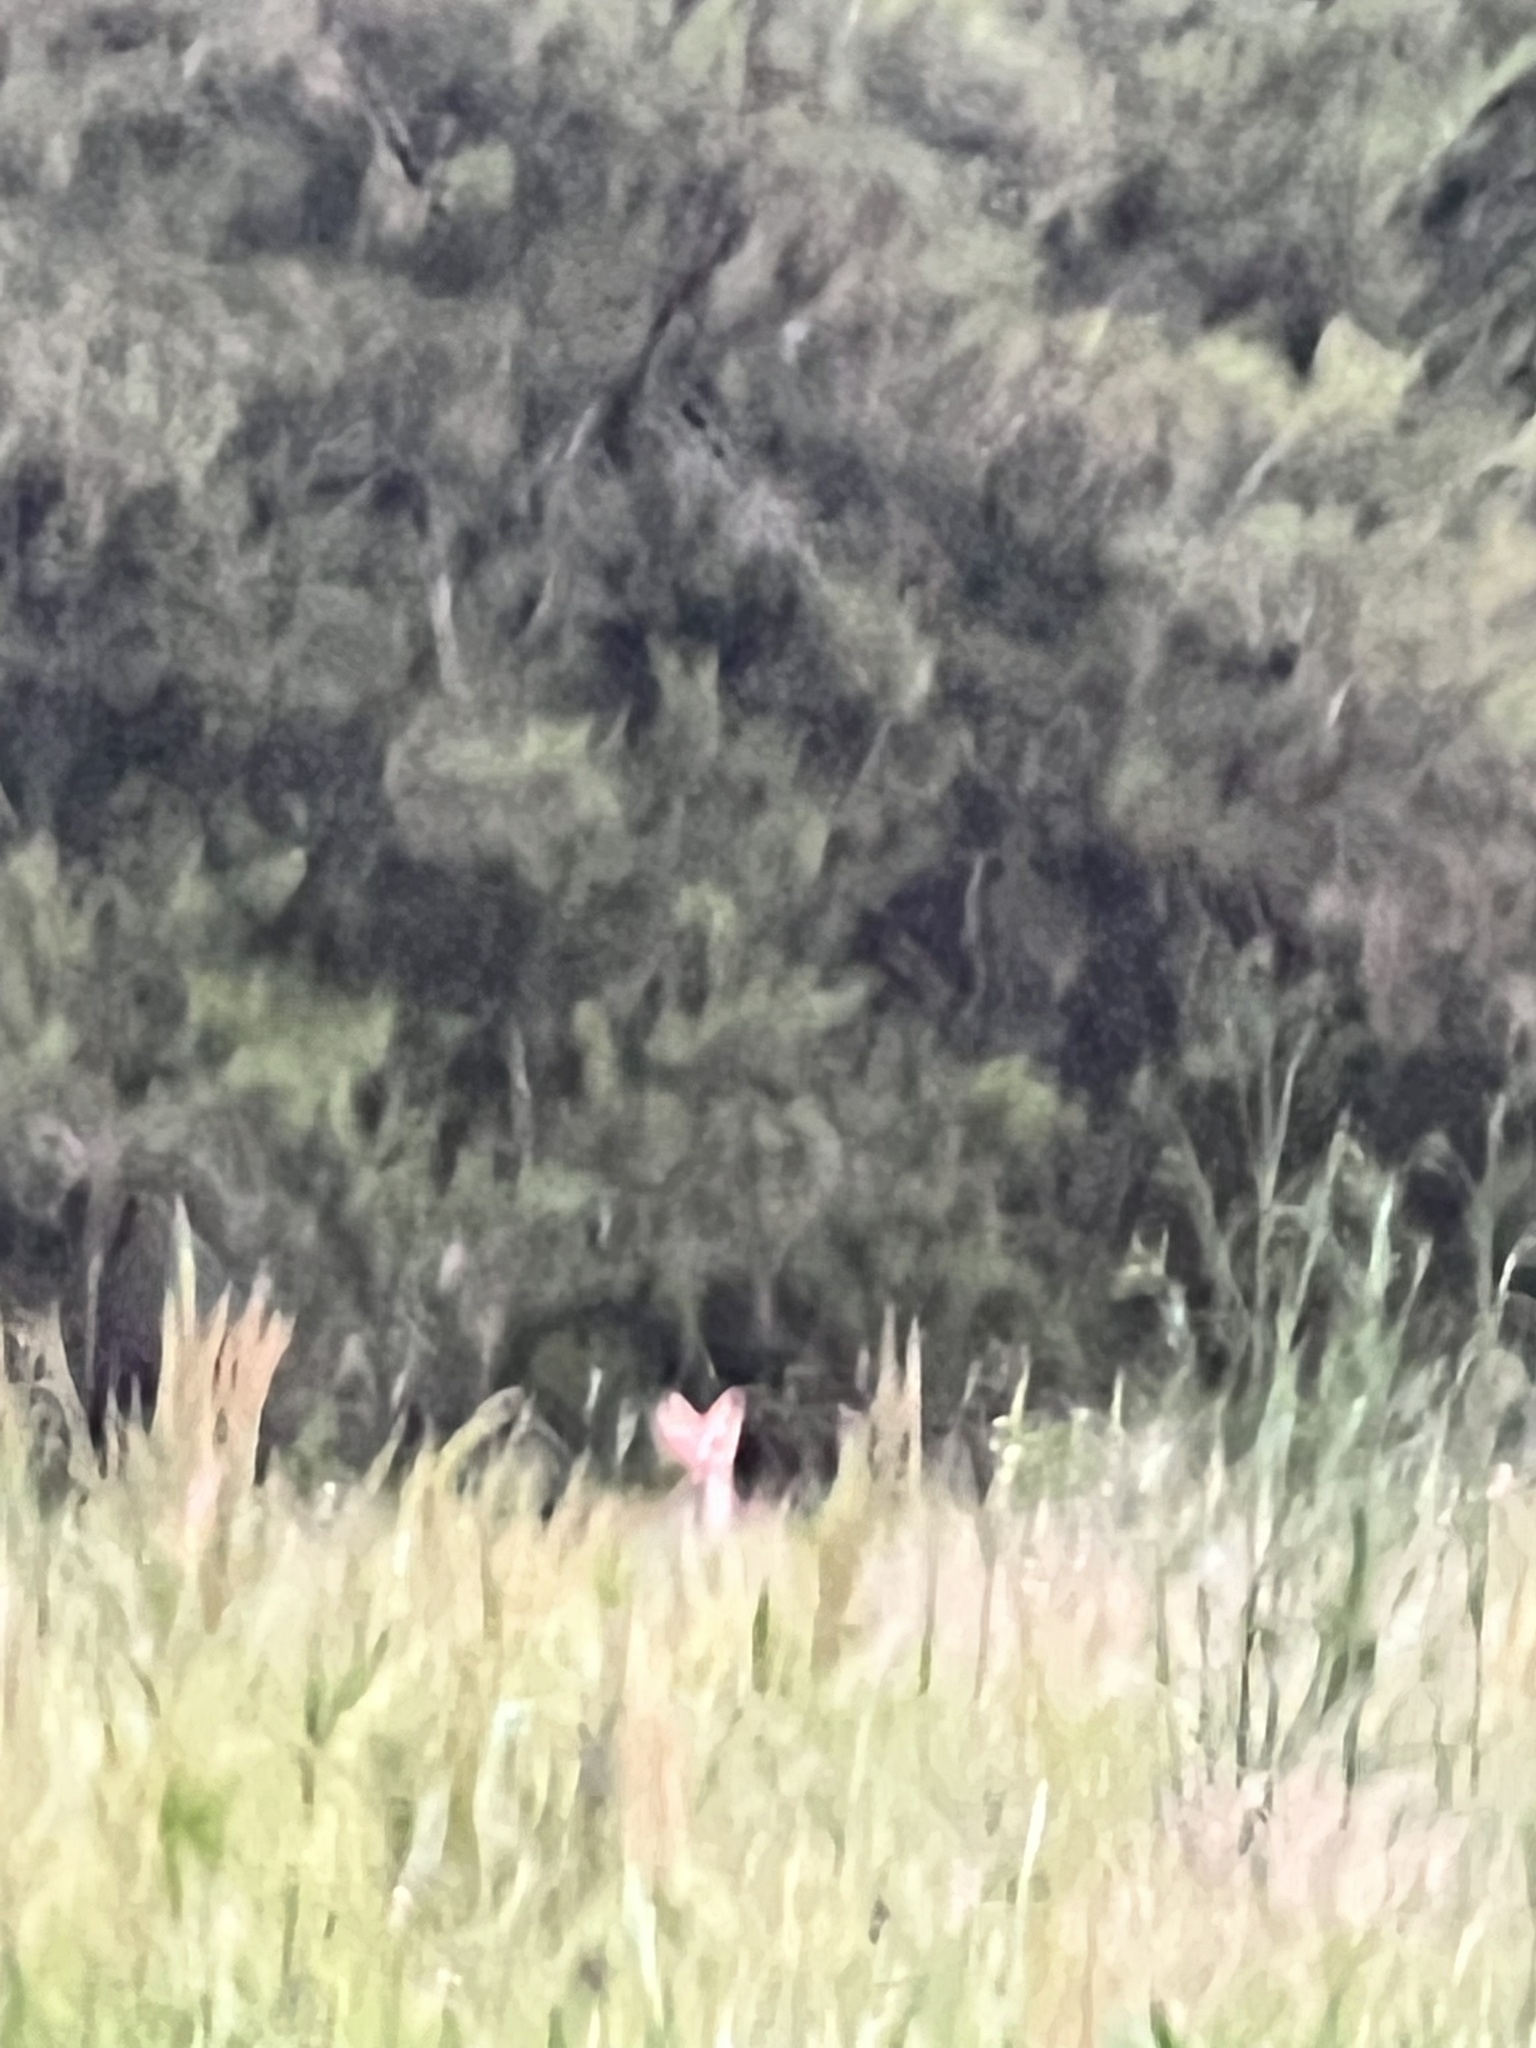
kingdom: Animalia
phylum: Chordata
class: Mammalia
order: Carnivora
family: Canidae
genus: Vulpes
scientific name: Vulpes vulpes
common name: Red fox
